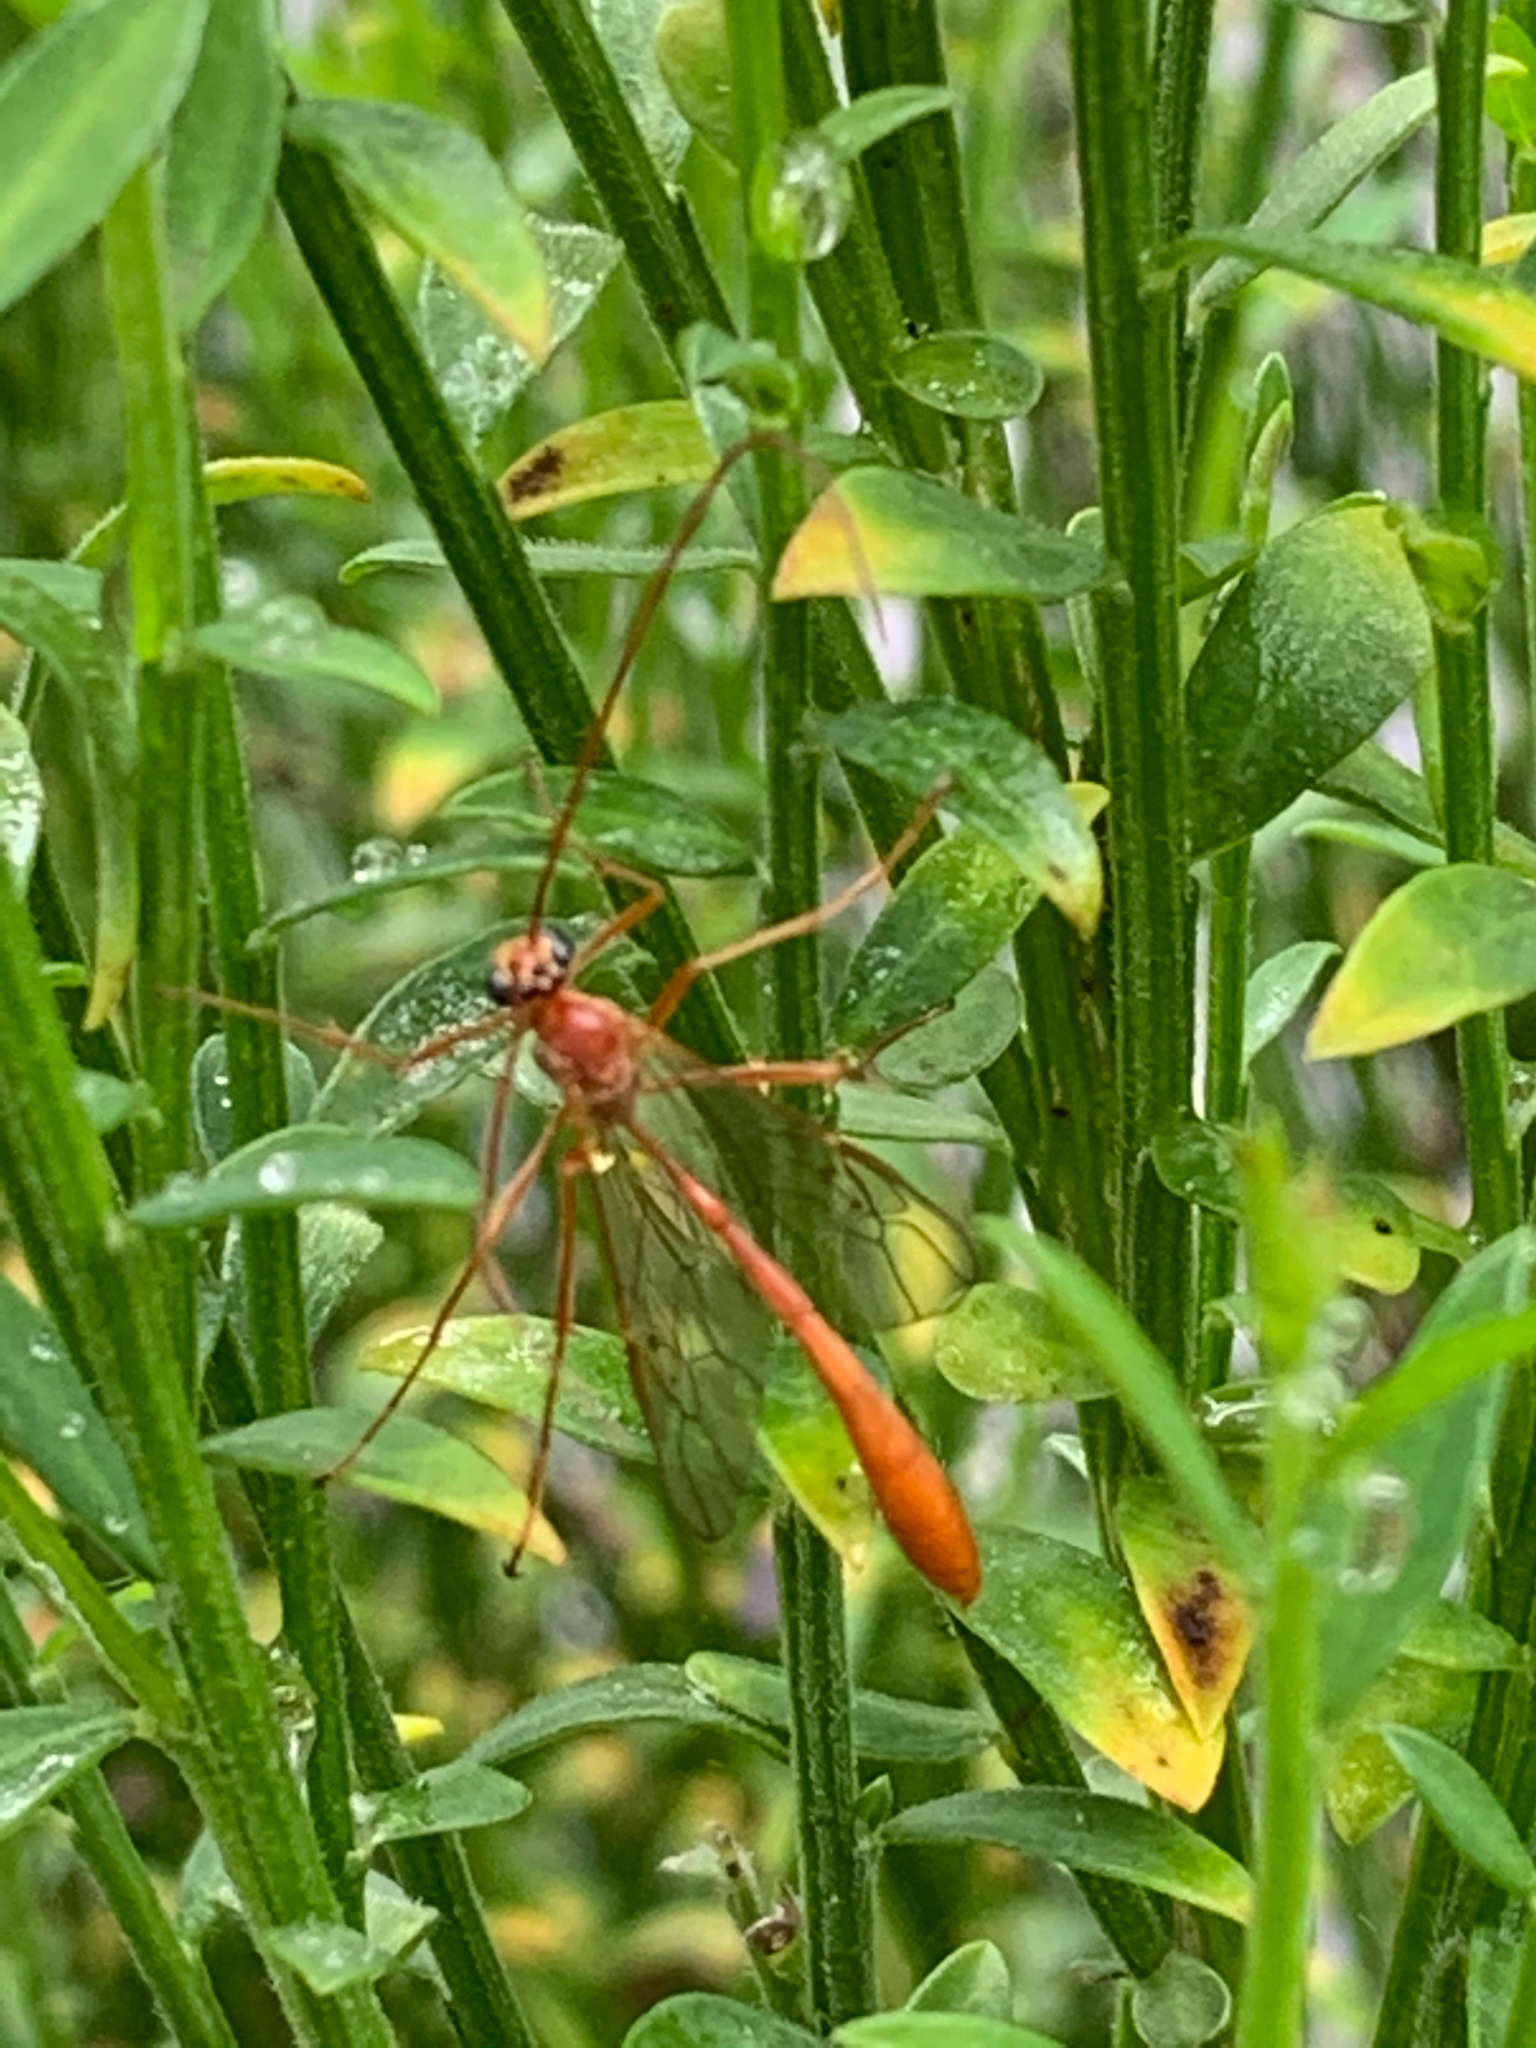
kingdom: Animalia
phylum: Arthropoda
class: Insecta
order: Hymenoptera
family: Ichneumonidae
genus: Enicospilus
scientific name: Enicospilus purgatus
